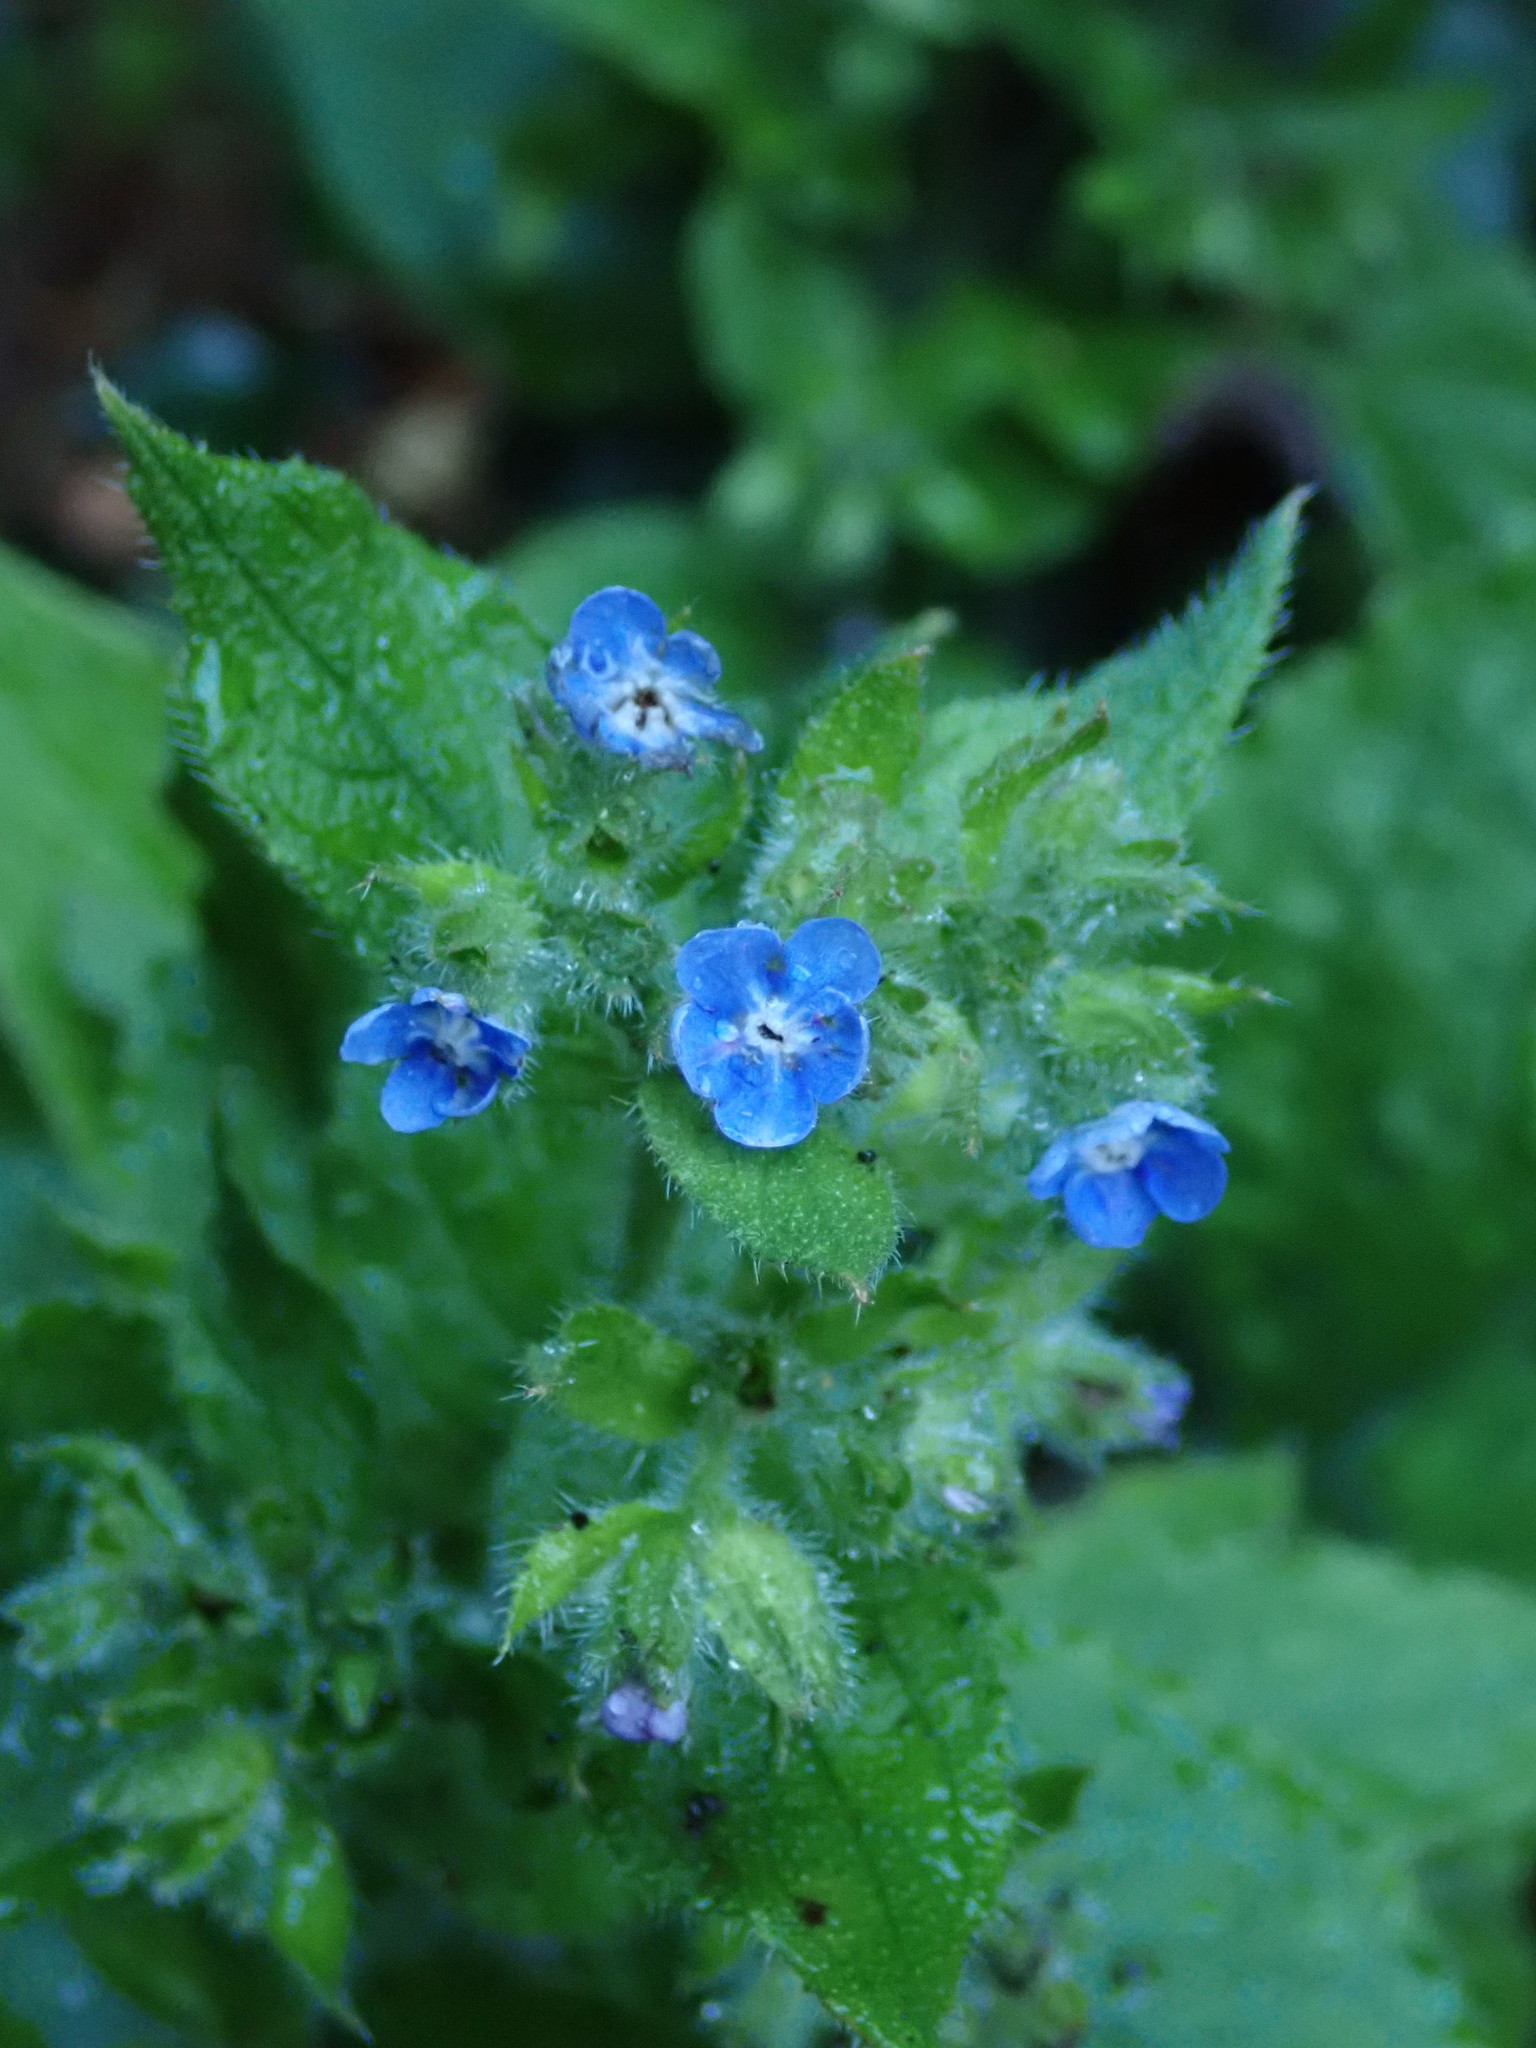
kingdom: Plantae
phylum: Tracheophyta
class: Magnoliopsida
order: Boraginales
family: Boraginaceae
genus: Pentaglottis
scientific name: Pentaglottis sempervirens
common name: Green alkanet
